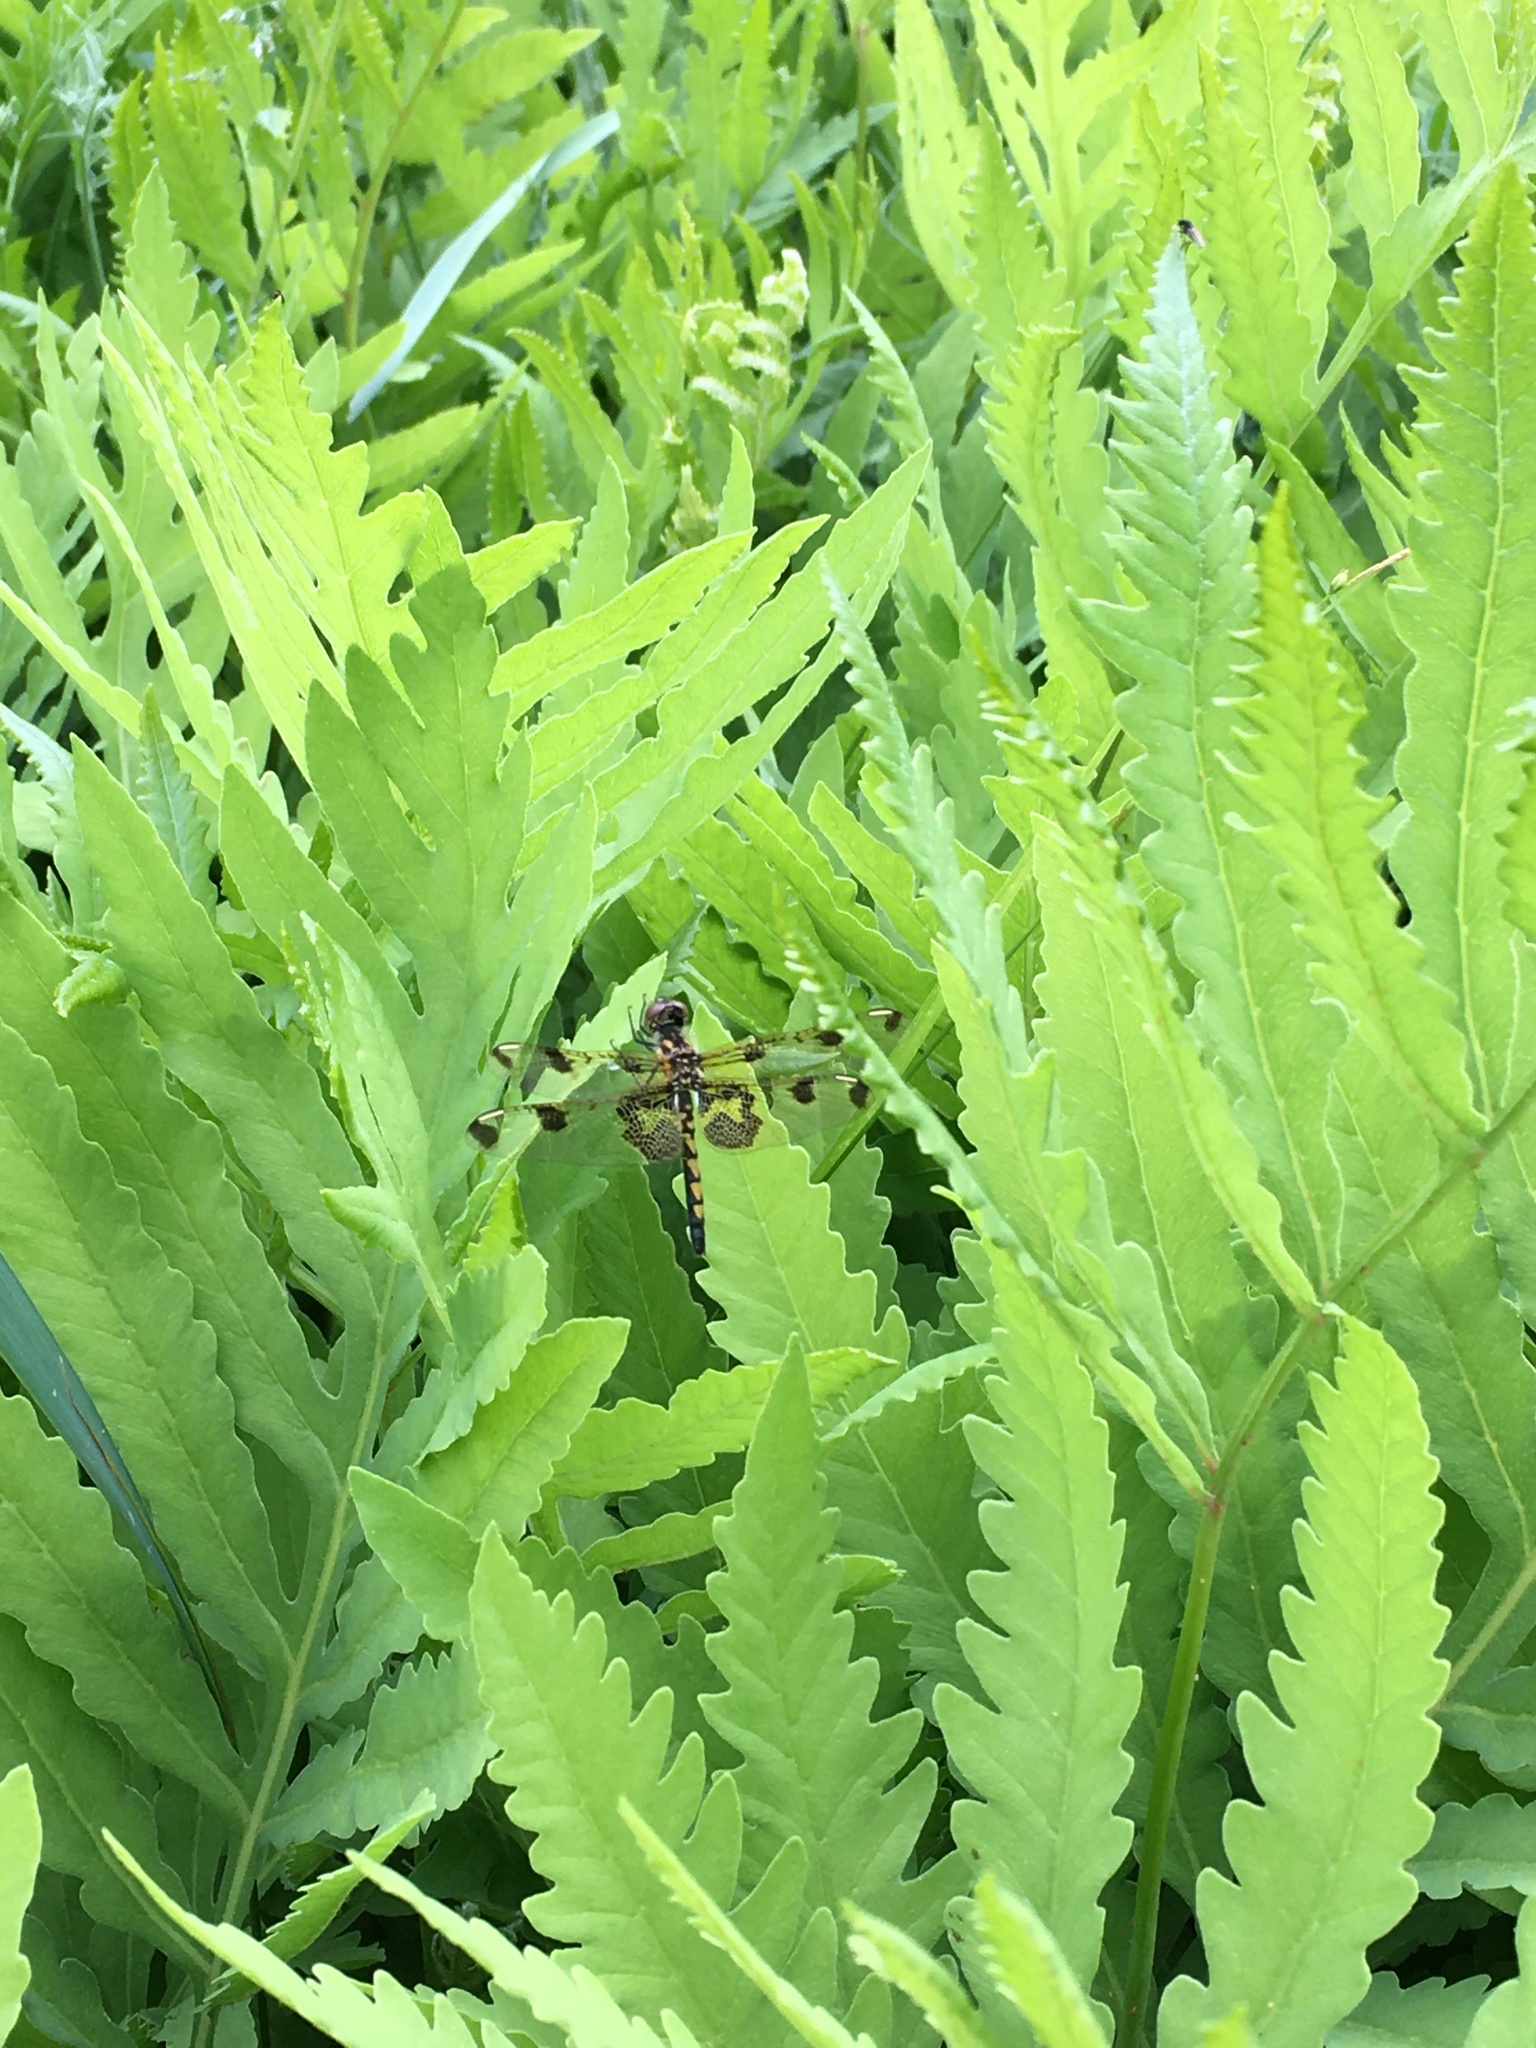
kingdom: Animalia
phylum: Arthropoda
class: Insecta
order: Odonata
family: Libellulidae
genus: Celithemis
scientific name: Celithemis elisa
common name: Calico pennant
